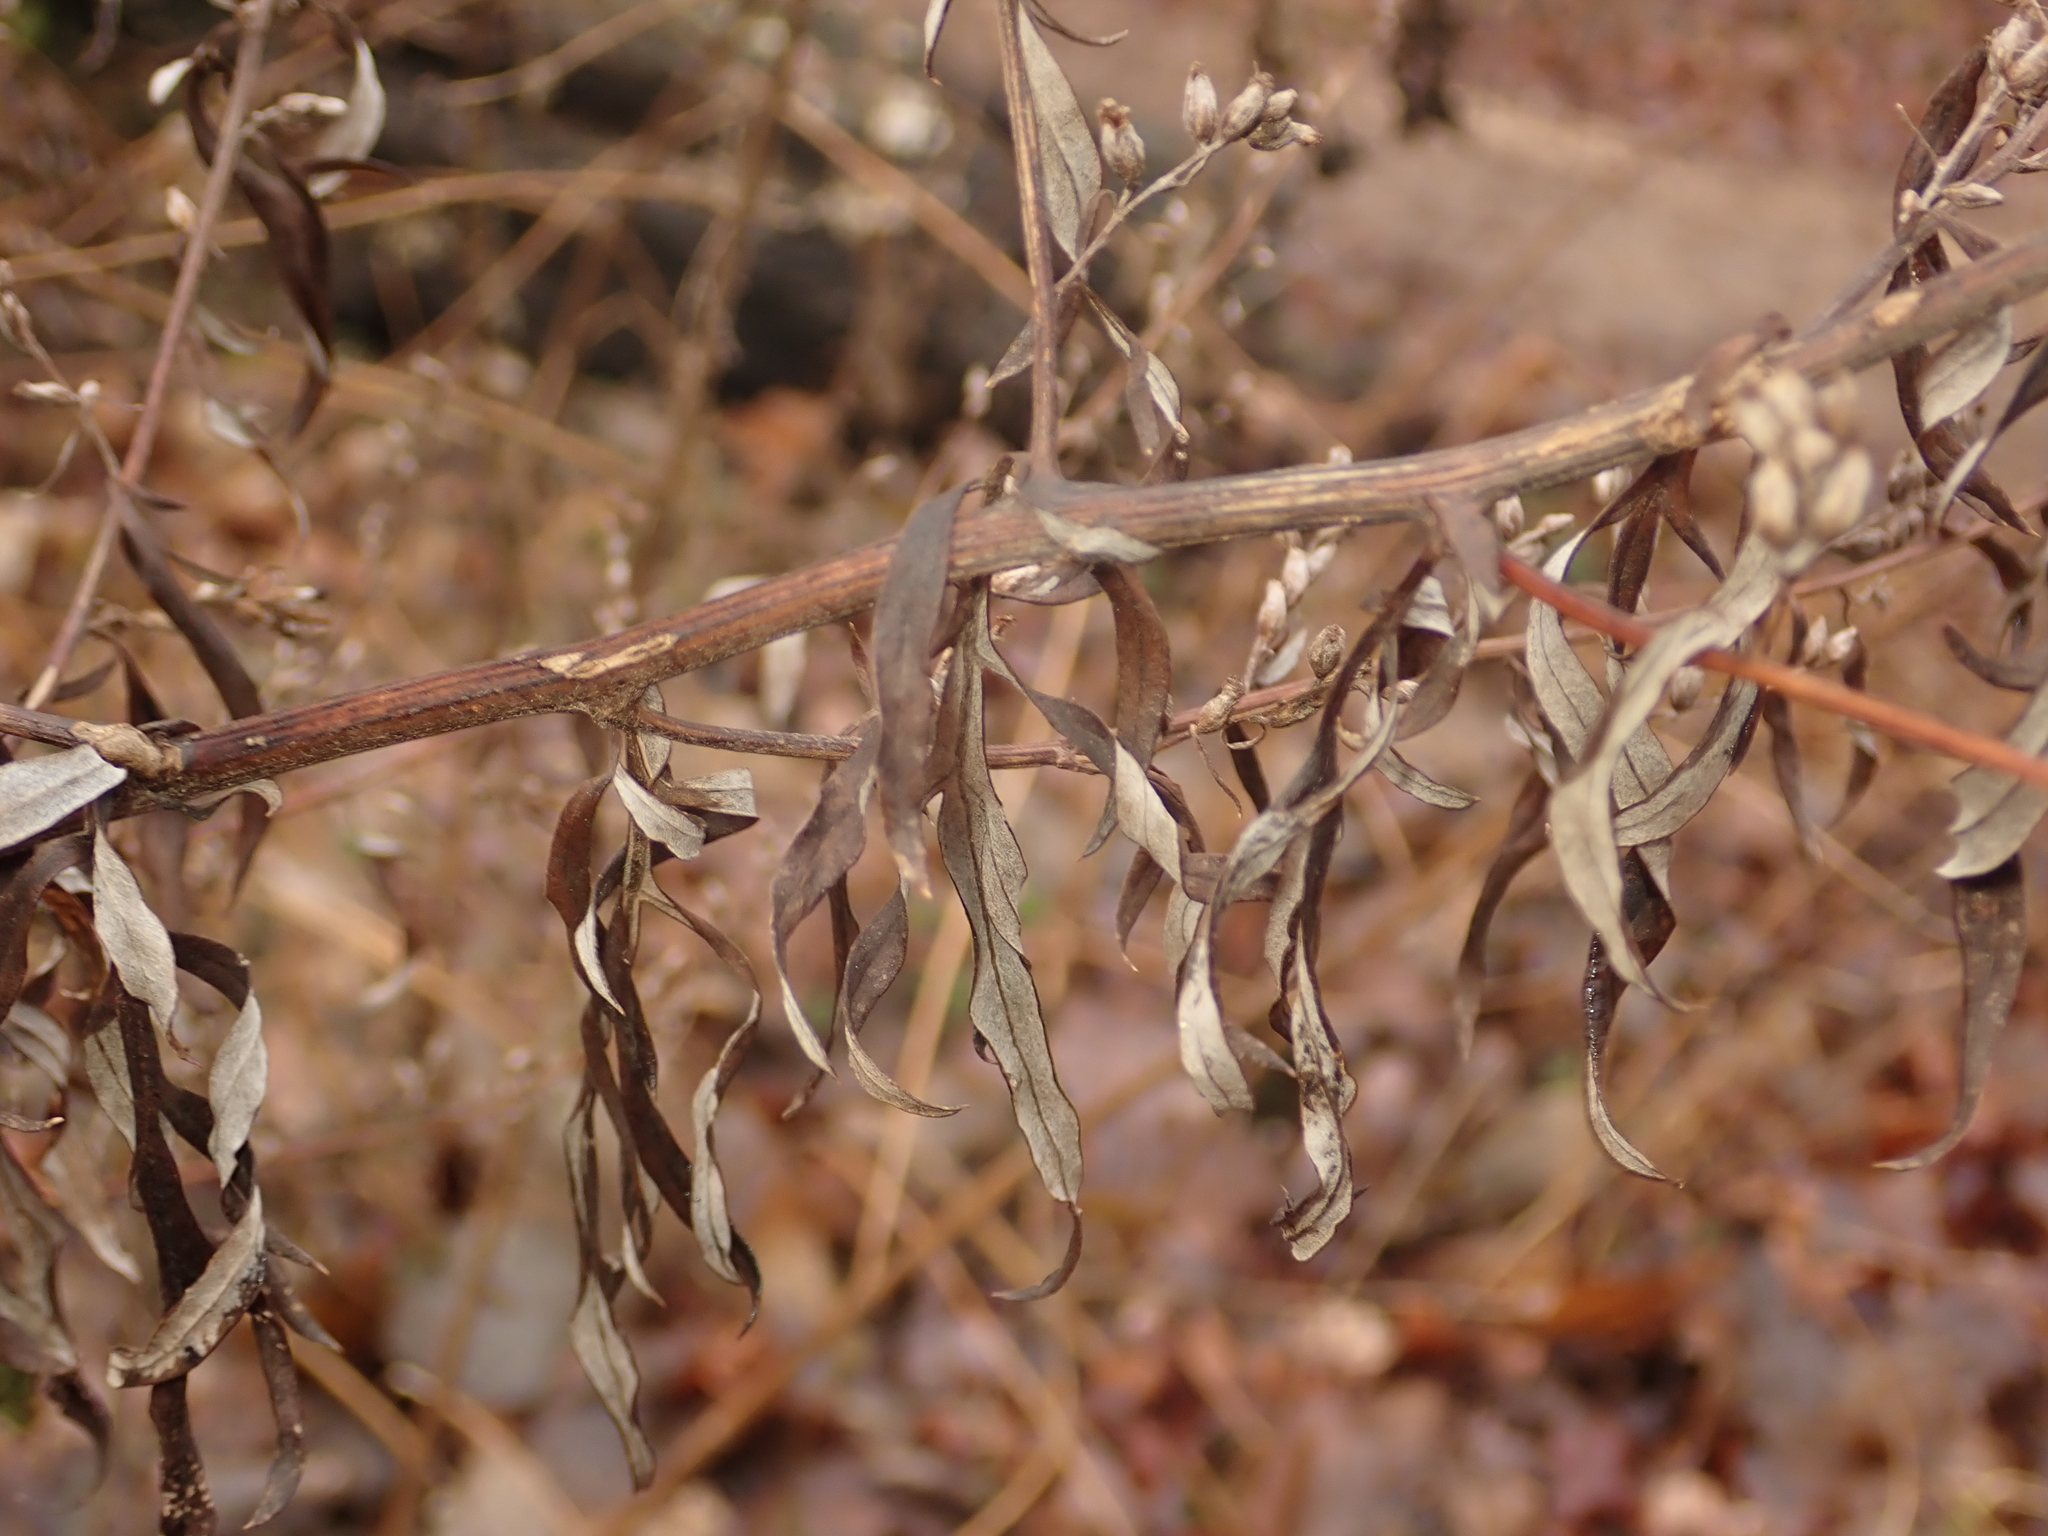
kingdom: Plantae
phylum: Tracheophyta
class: Magnoliopsida
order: Asterales
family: Asteraceae
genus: Artemisia
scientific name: Artemisia vulgaris
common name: Mugwort
